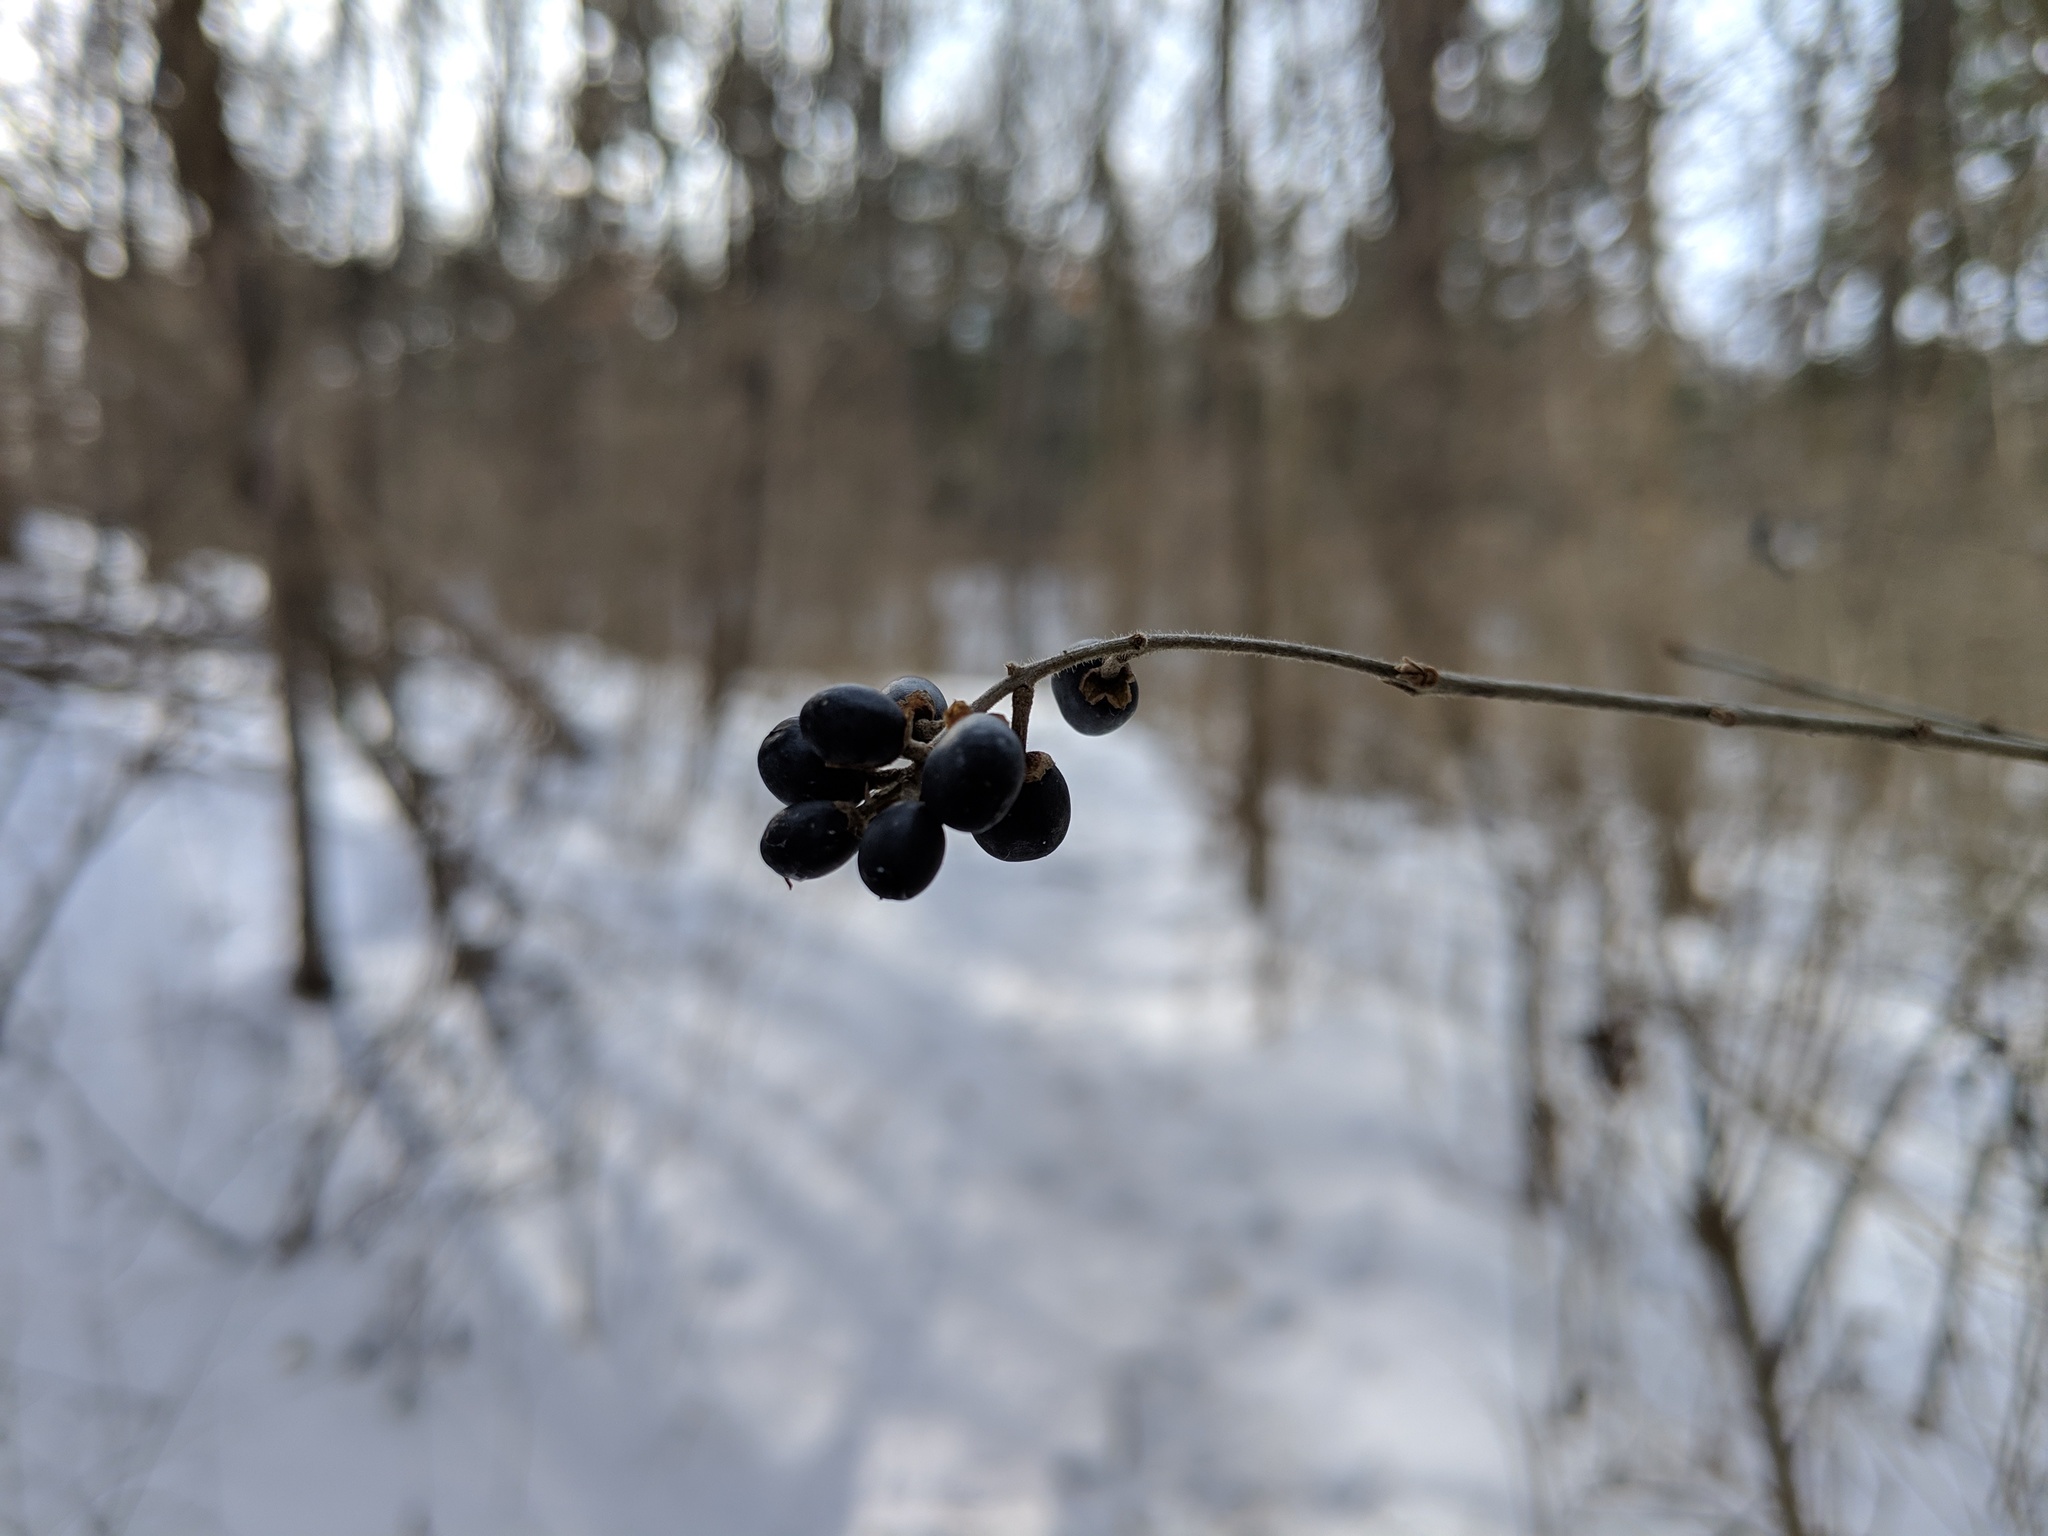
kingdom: Plantae
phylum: Tracheophyta
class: Magnoliopsida
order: Lamiales
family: Oleaceae
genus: Ligustrum
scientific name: Ligustrum
